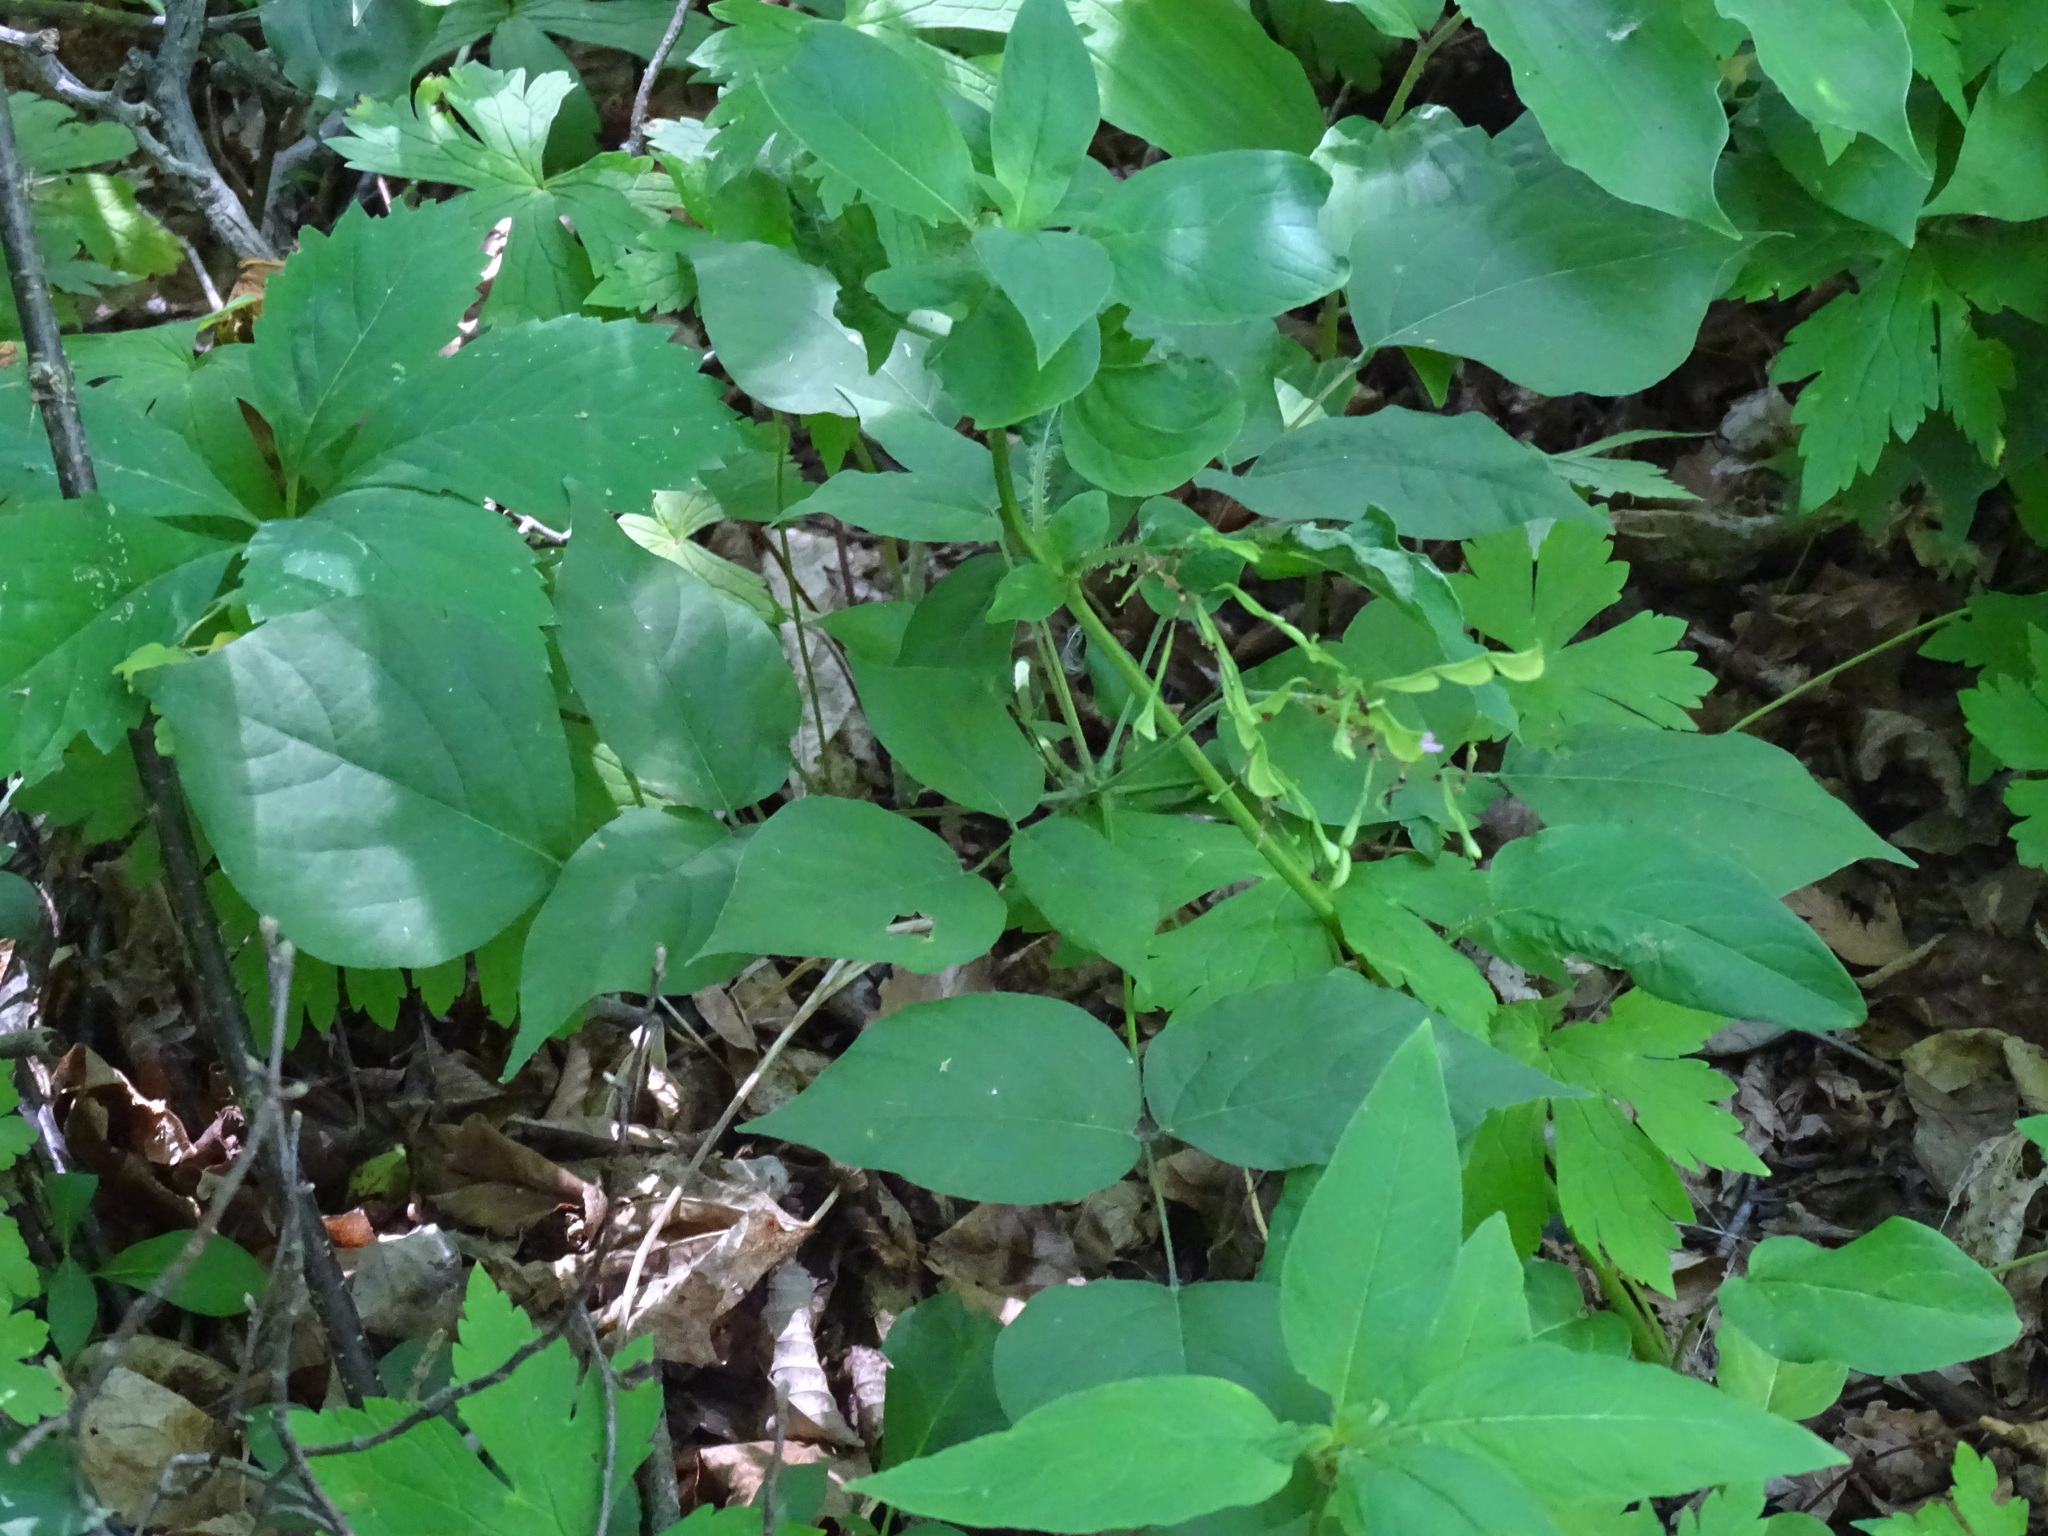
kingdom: Plantae
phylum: Tracheophyta
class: Magnoliopsida
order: Fabales
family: Fabaceae
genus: Hylodesmum
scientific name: Hylodesmum glutinosum
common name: Clustered-leaved tick-trefoil
